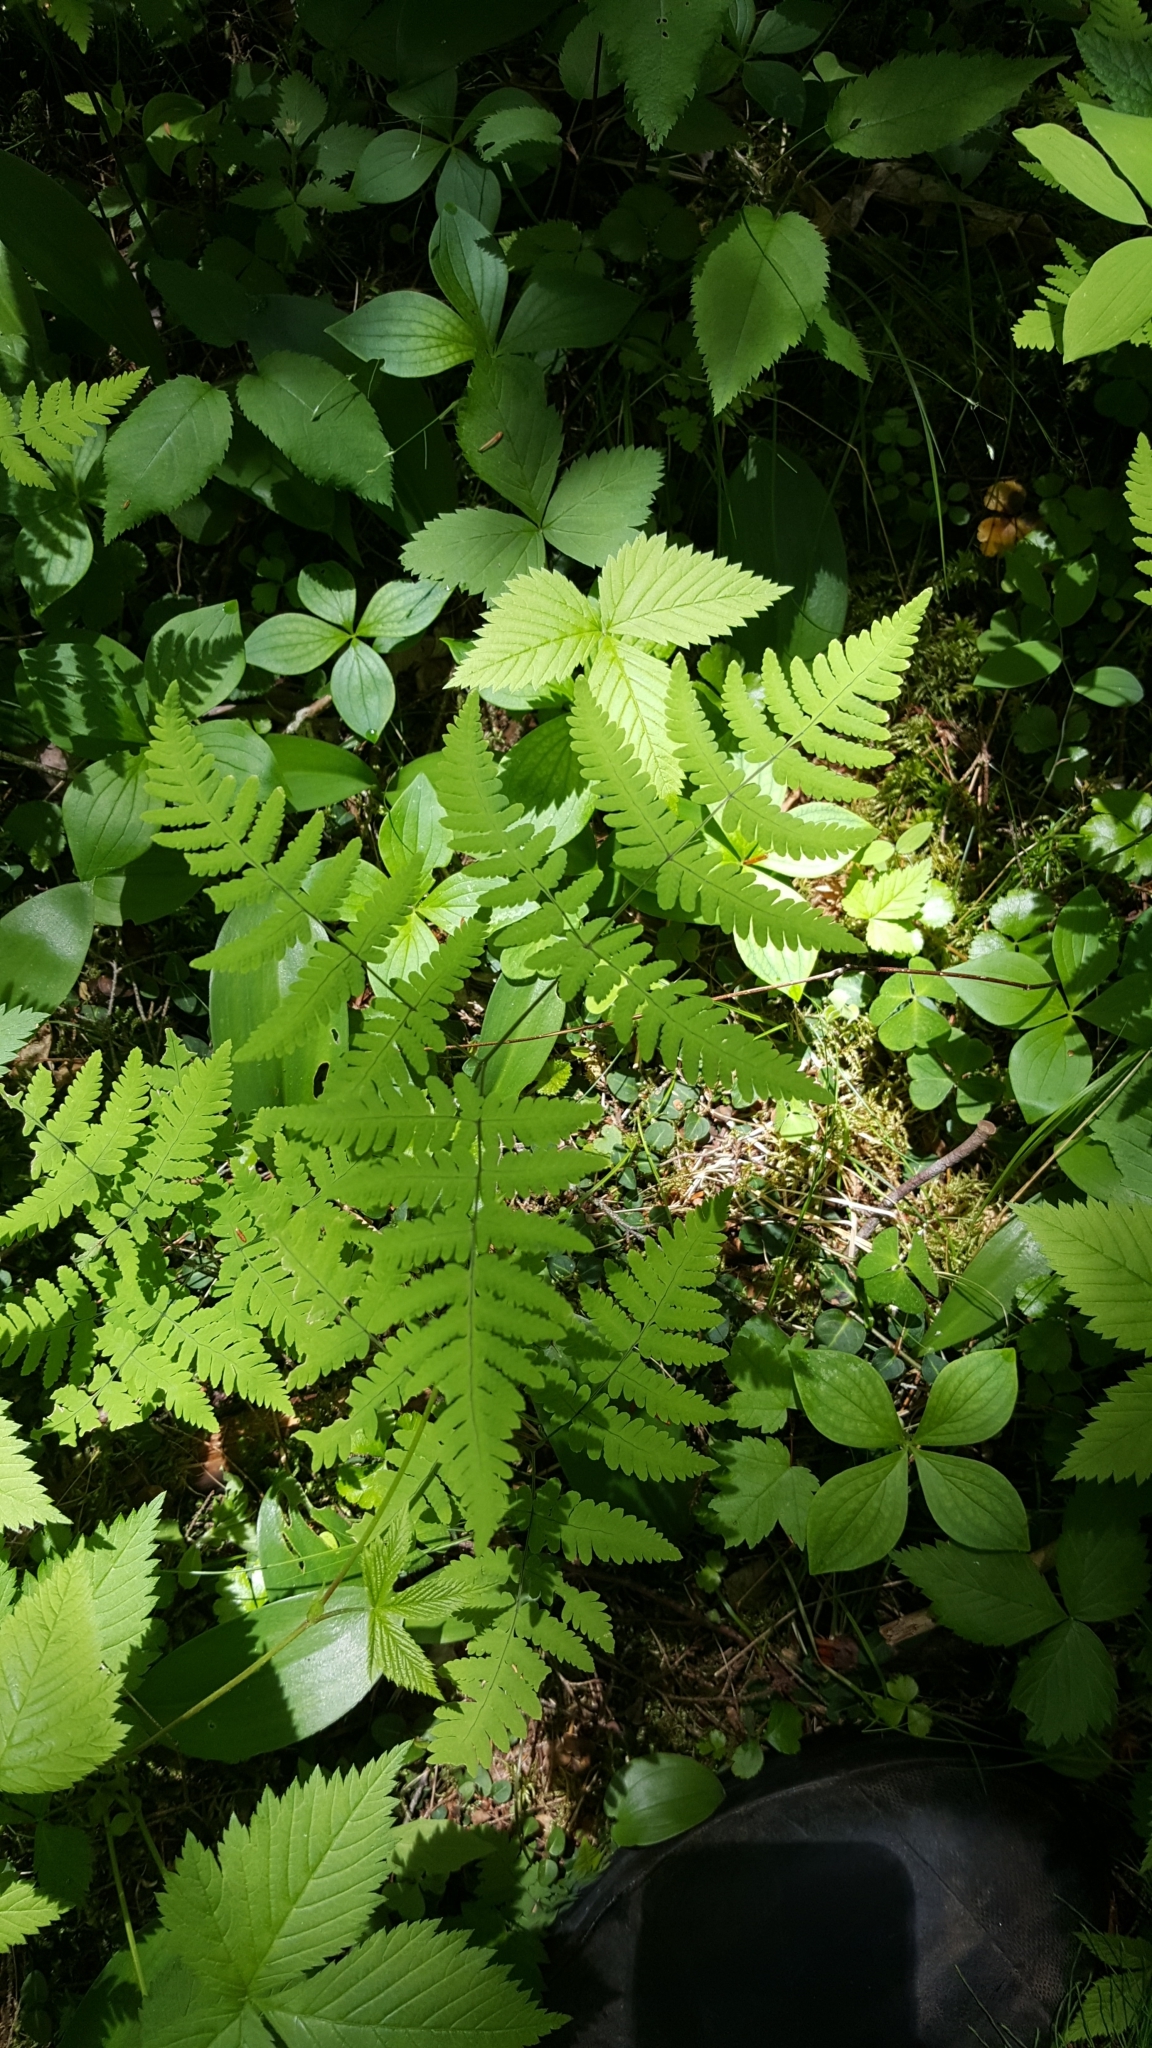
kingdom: Plantae
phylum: Tracheophyta
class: Polypodiopsida
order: Polypodiales
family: Cystopteridaceae
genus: Gymnocarpium
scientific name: Gymnocarpium dryopteris
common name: Oak fern
